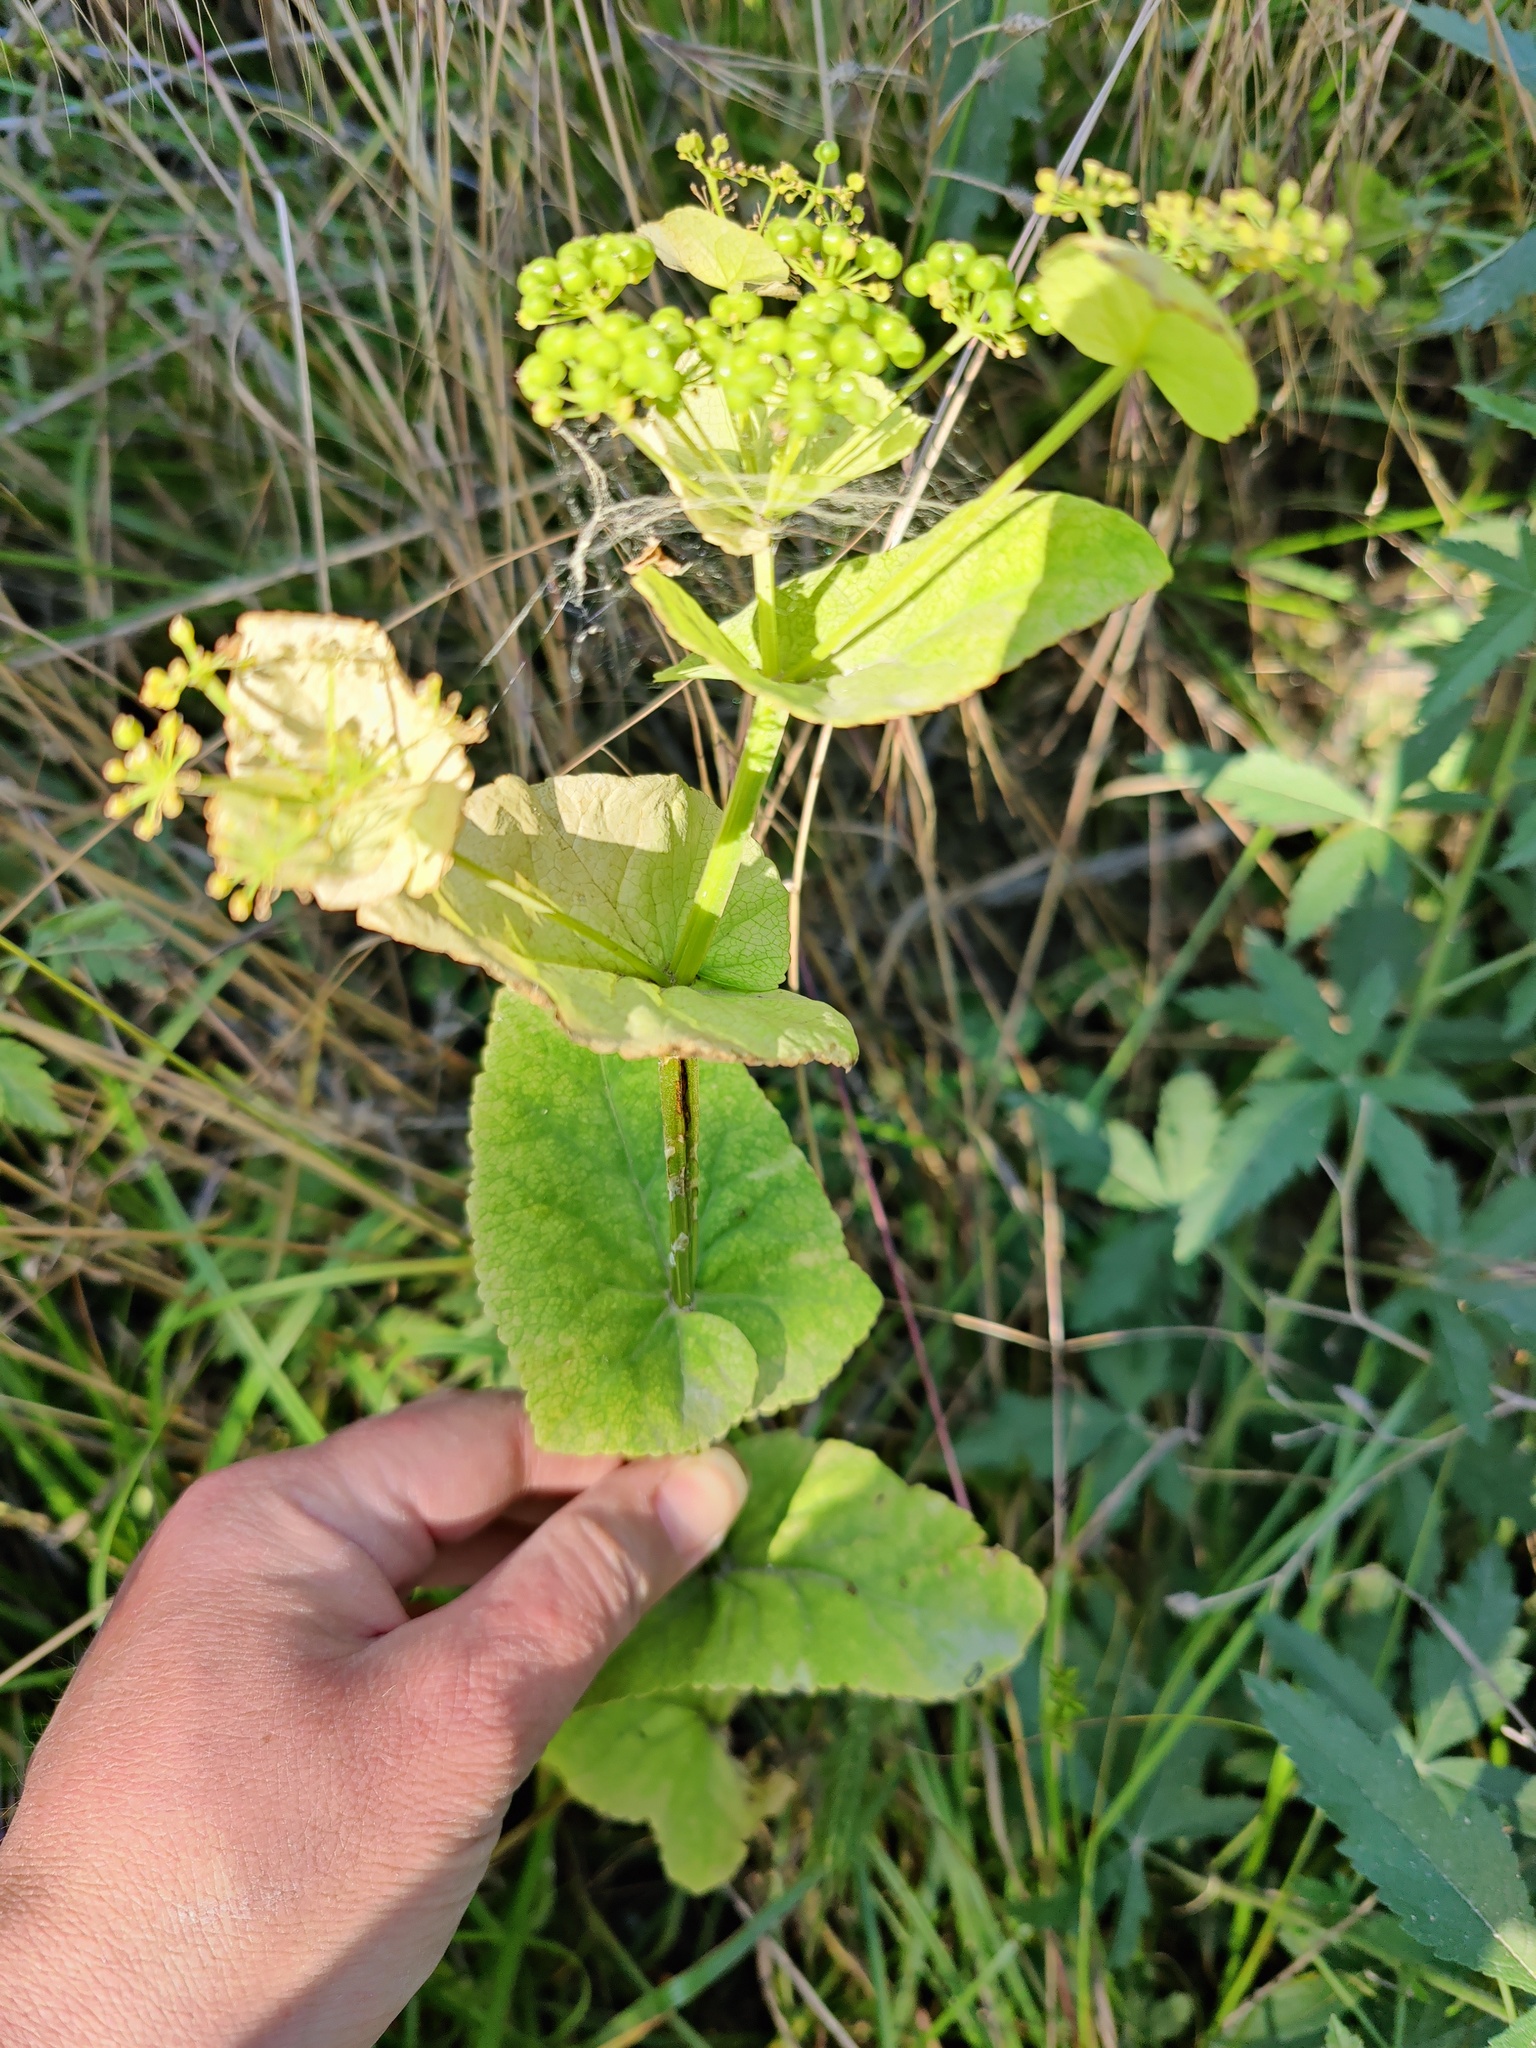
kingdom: Plantae
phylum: Tracheophyta
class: Magnoliopsida
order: Apiales
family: Apiaceae
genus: Smyrnium
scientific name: Smyrnium perfoliatum
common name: Perfoliate alexanders
